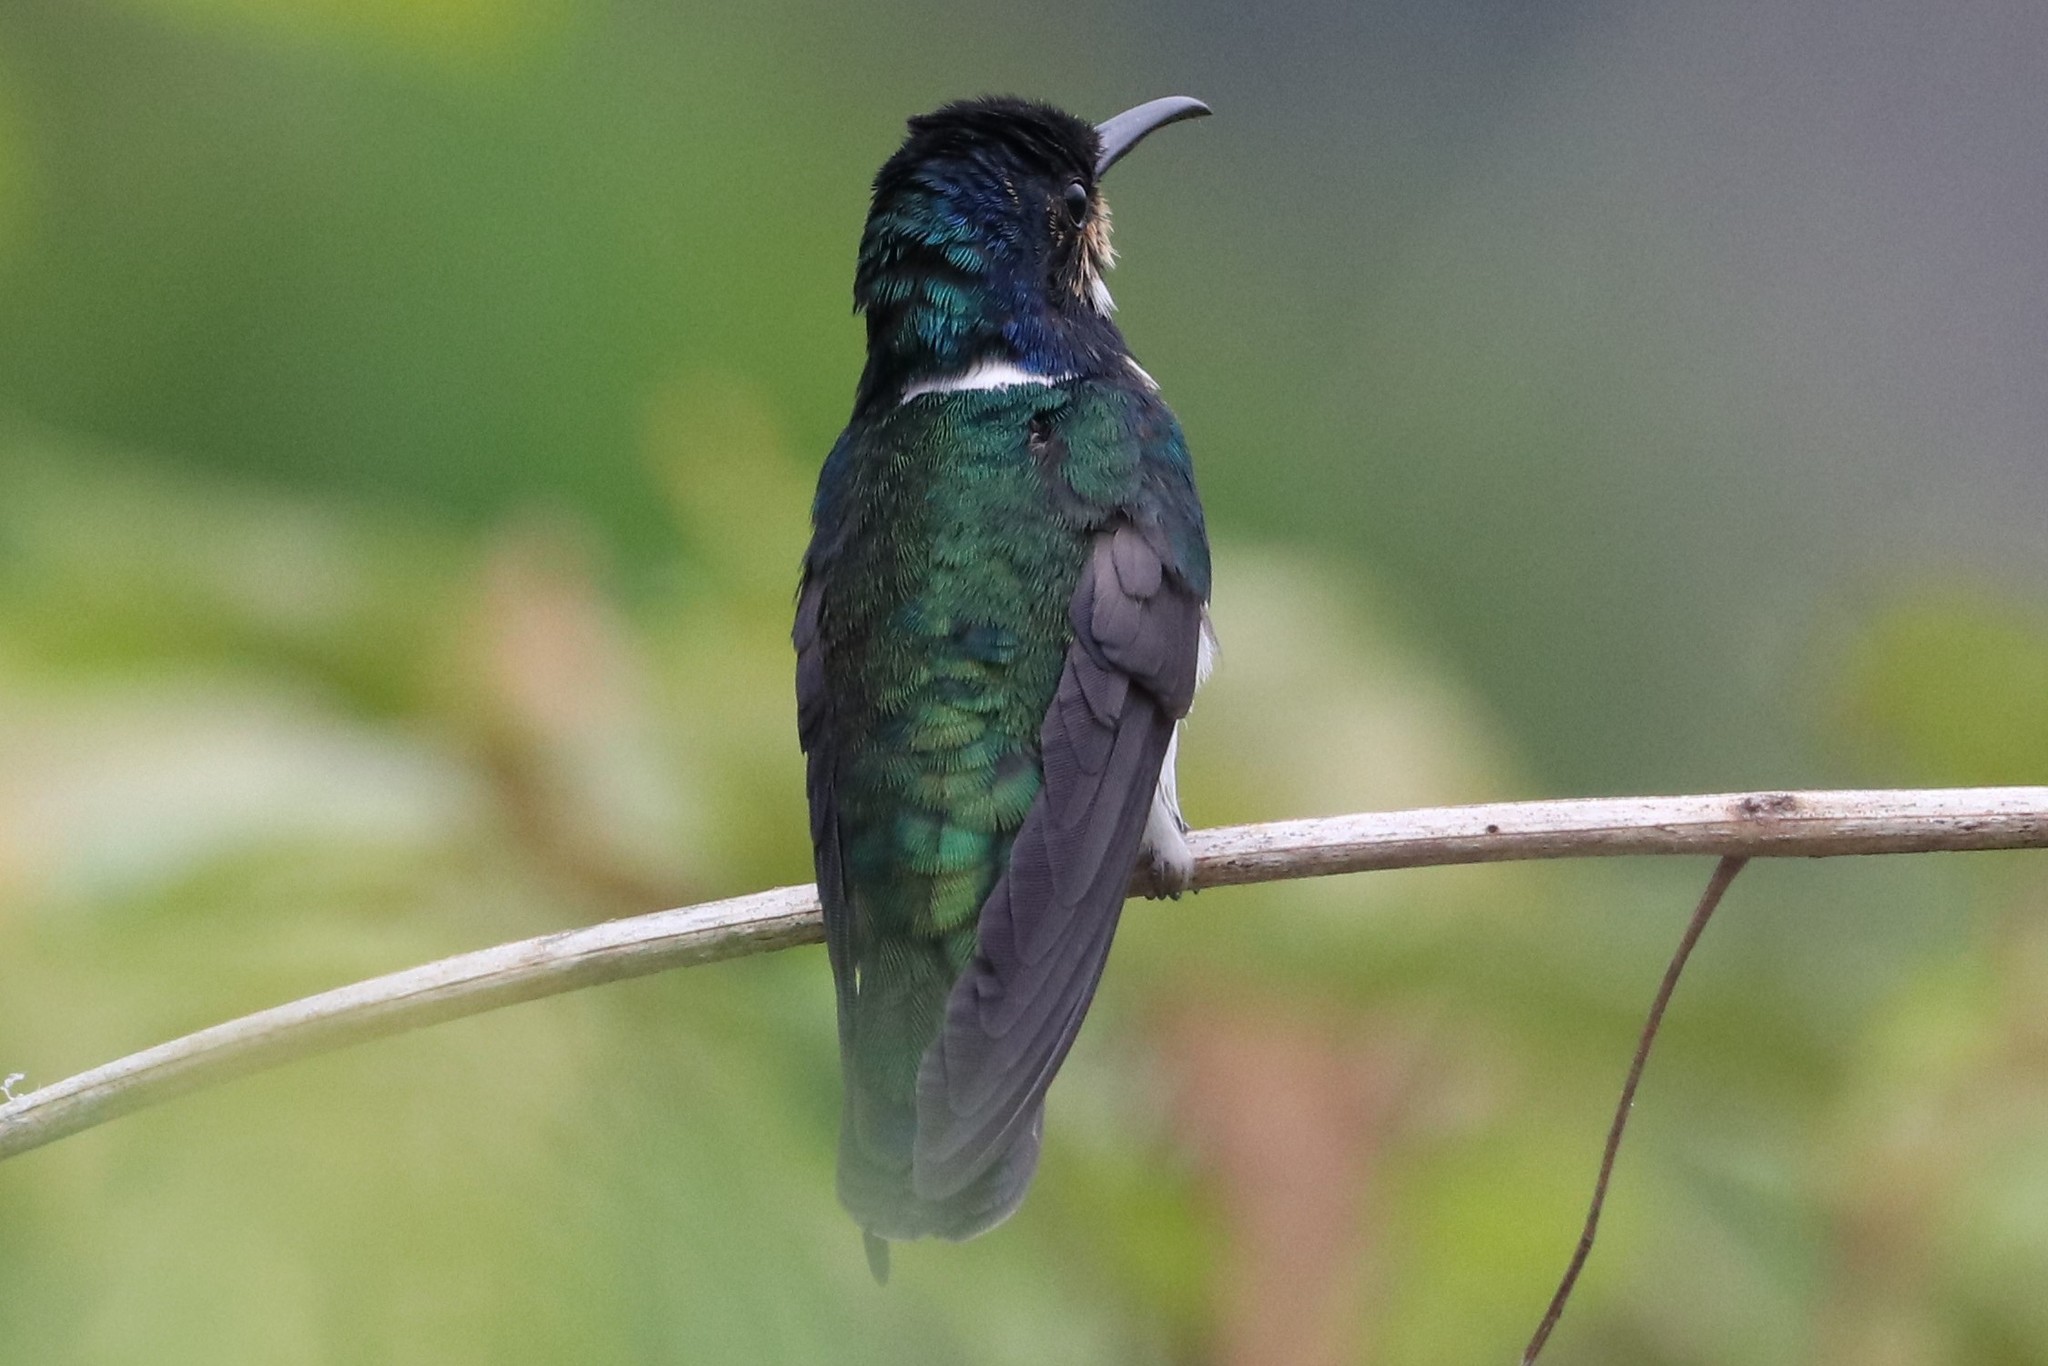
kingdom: Animalia
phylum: Chordata
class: Aves
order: Apodiformes
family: Trochilidae
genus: Florisuga
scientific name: Florisuga mellivora
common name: White-necked jacobin
